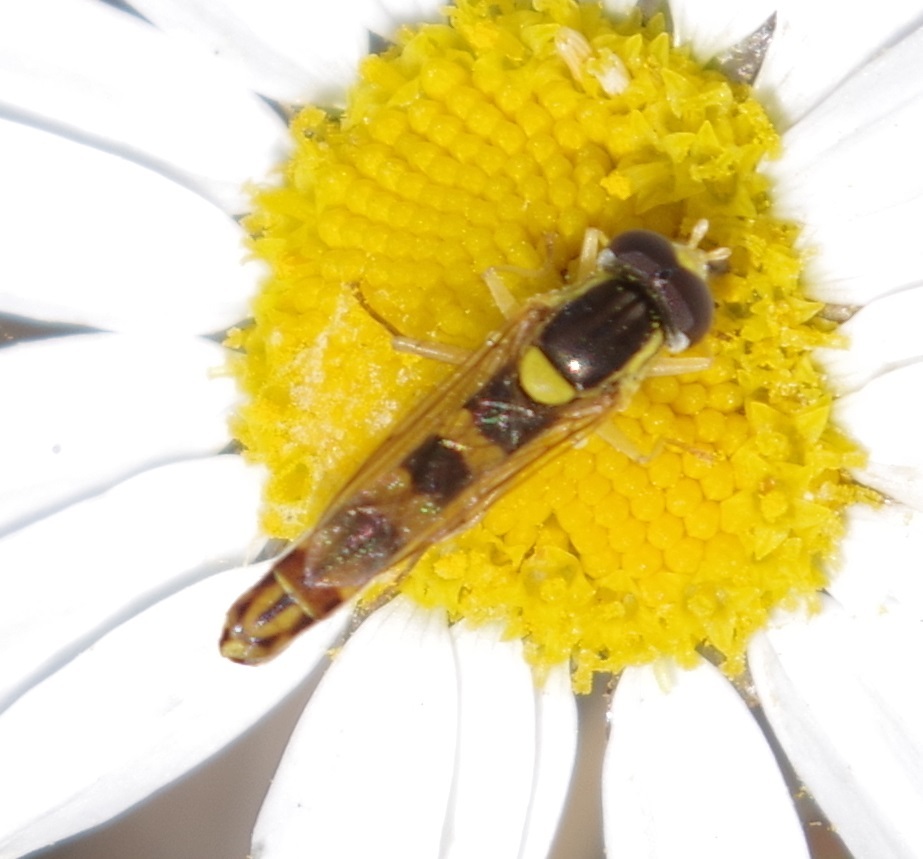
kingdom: Animalia
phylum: Arthropoda
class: Insecta
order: Diptera
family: Syrphidae
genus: Sphaerophoria
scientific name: Sphaerophoria scripta
